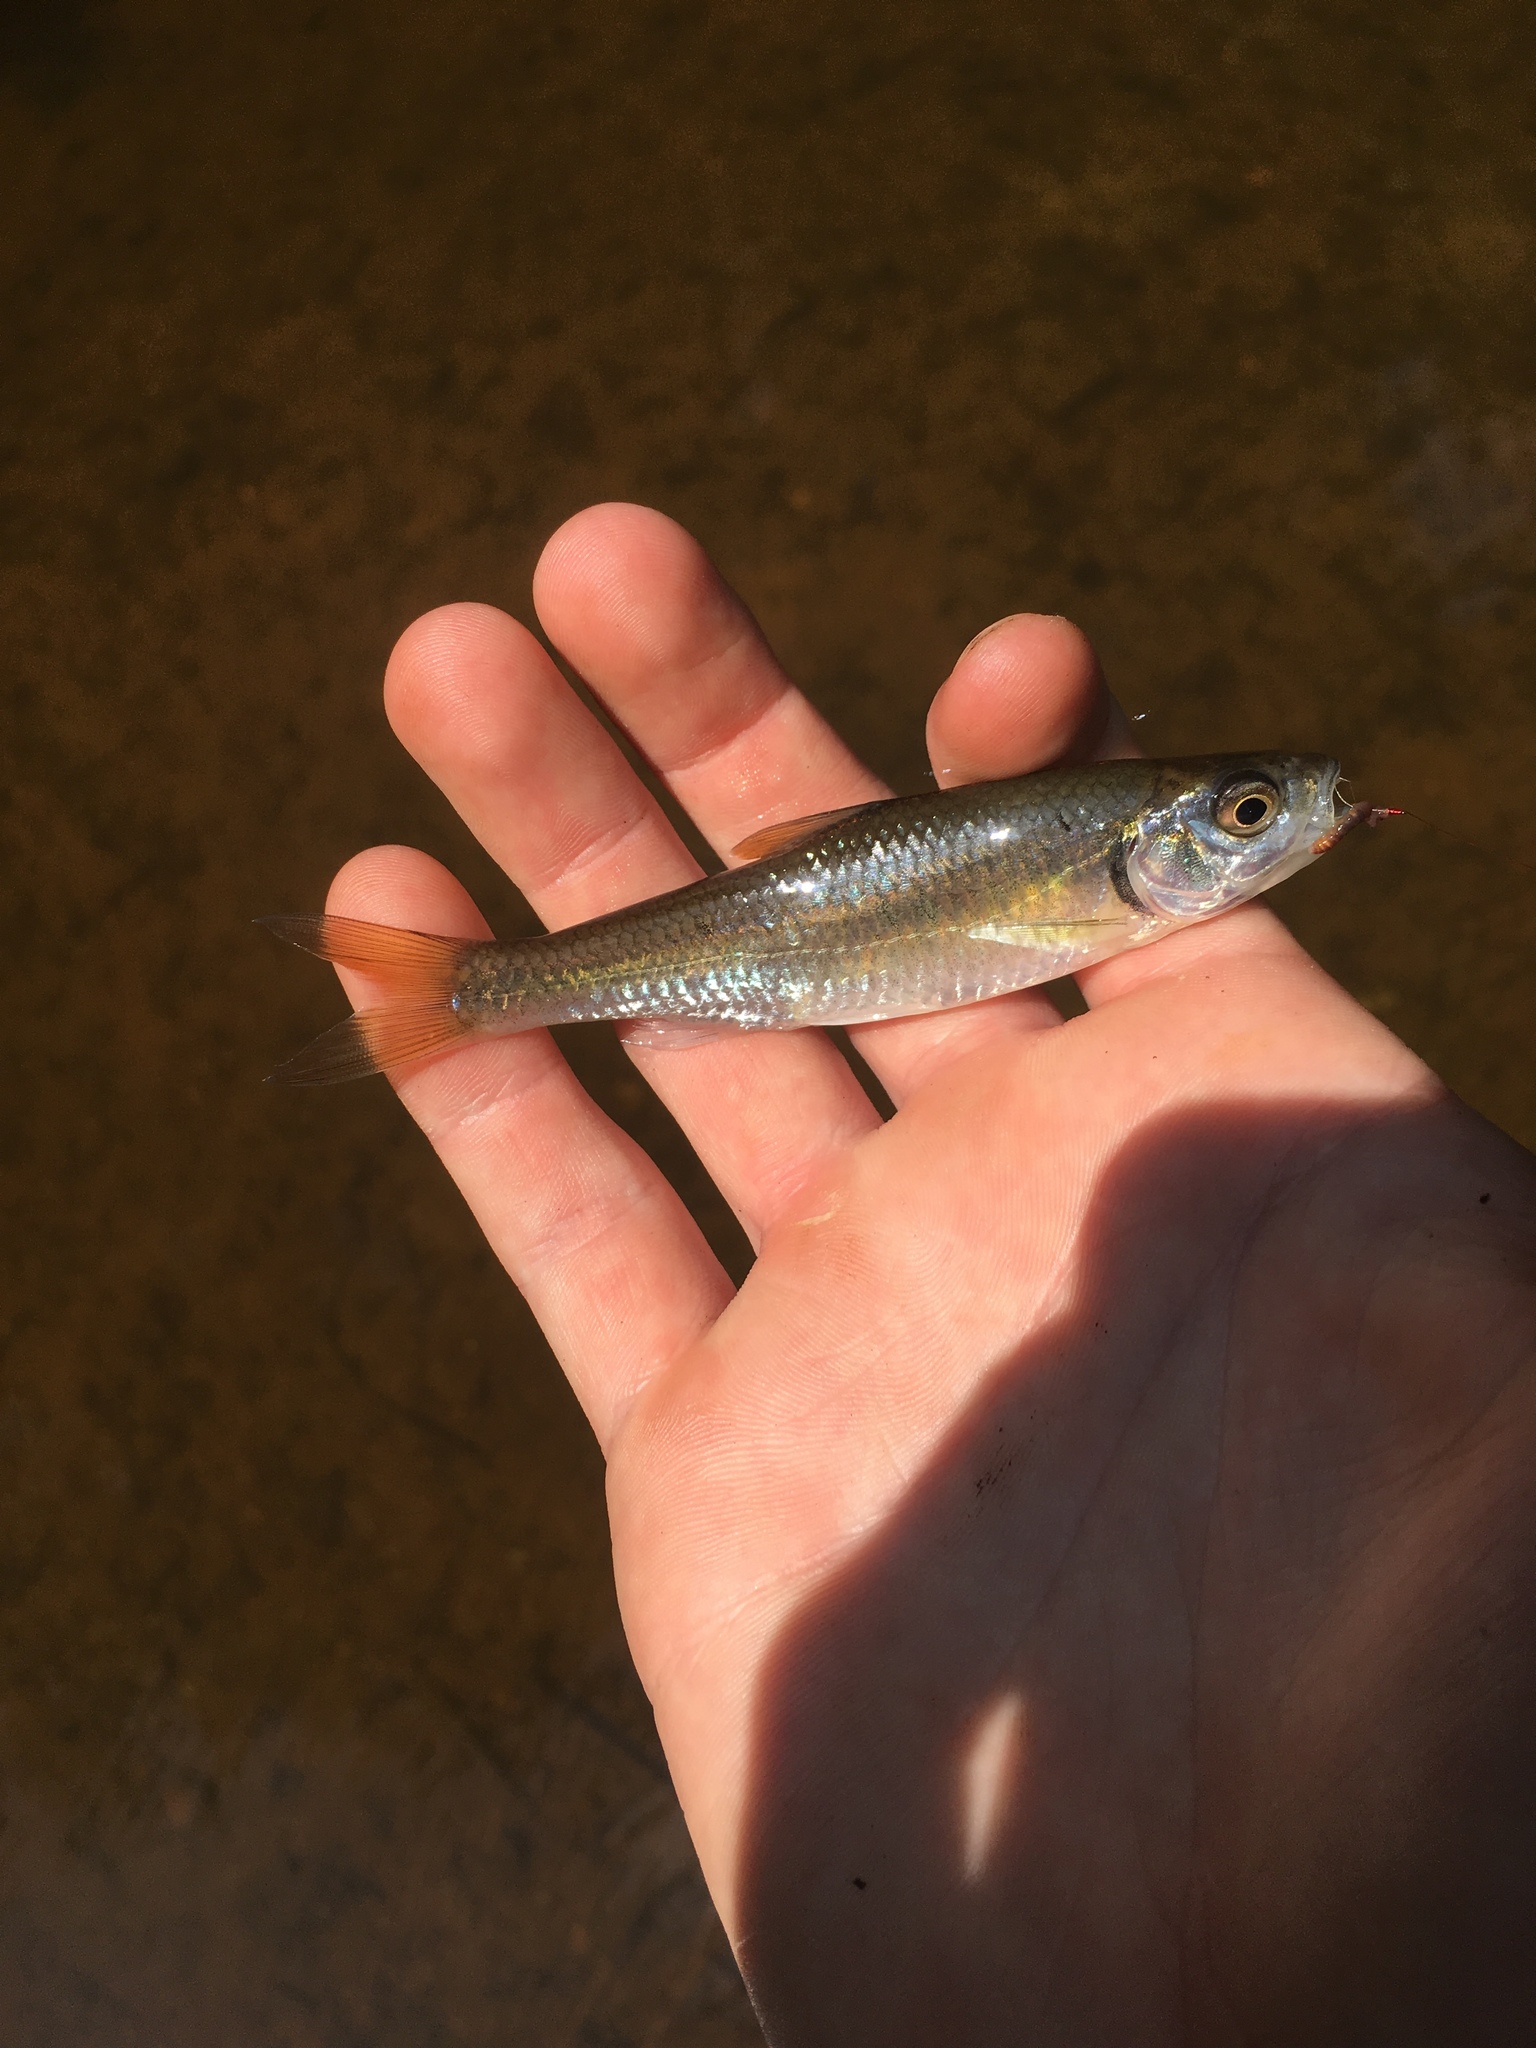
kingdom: Animalia
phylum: Chordata
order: Cypriniformes
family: Cyprinidae
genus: Luxilus
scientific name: Luxilus albeolus
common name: White shiner
